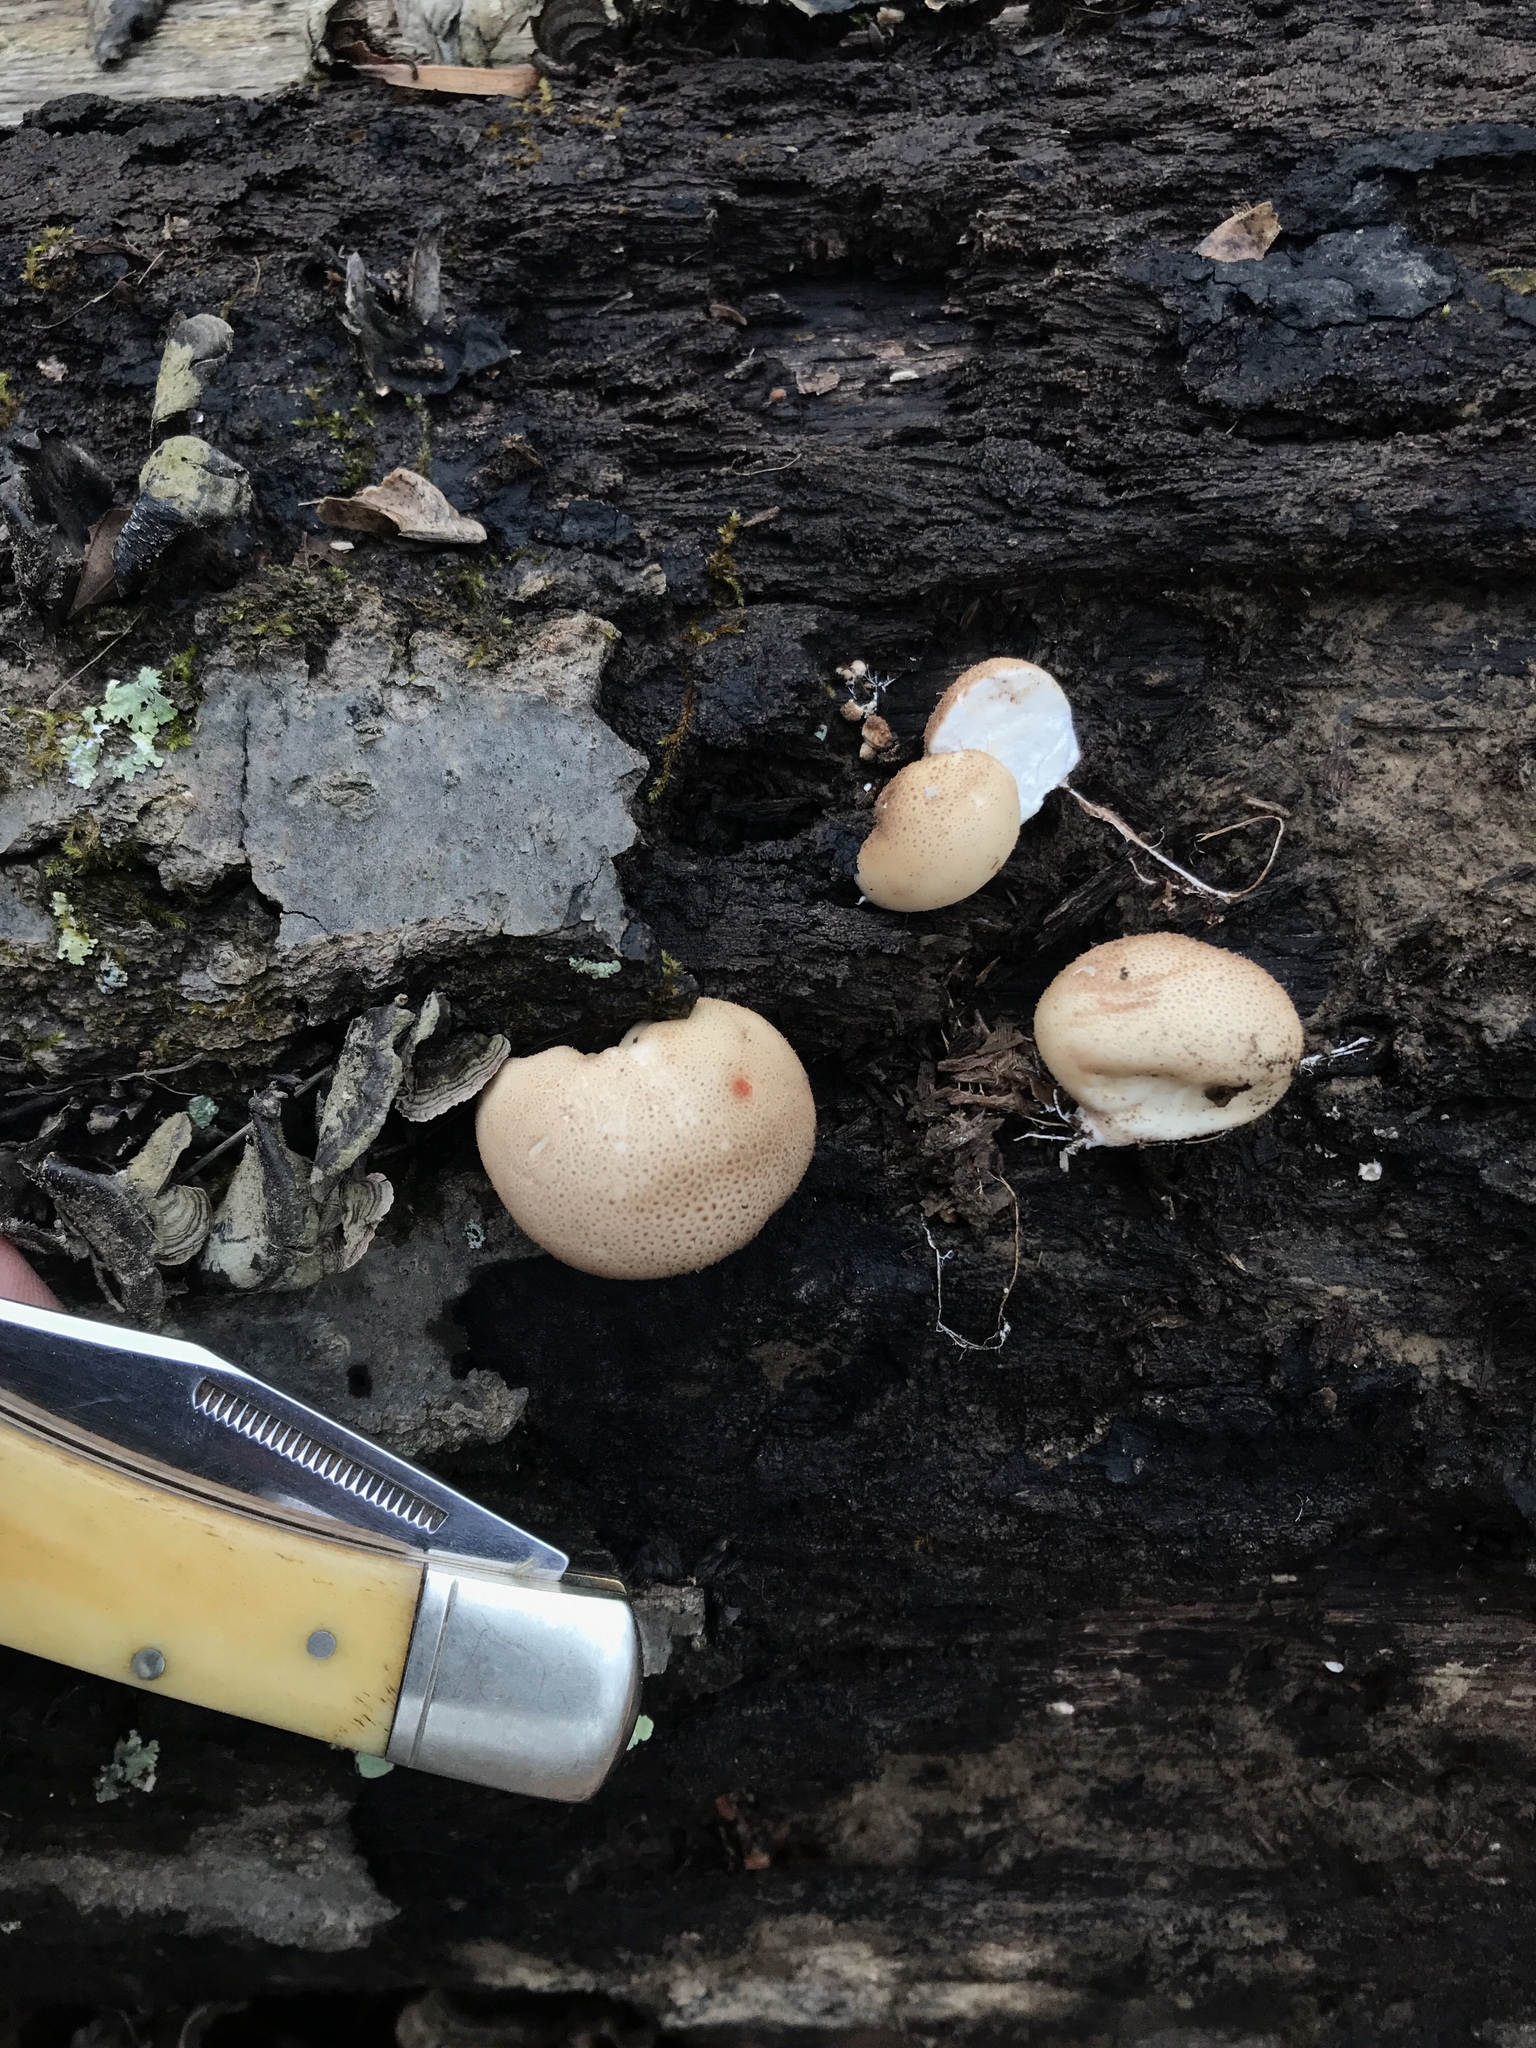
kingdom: Fungi
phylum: Basidiomycota
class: Agaricomycetes
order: Agaricales
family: Lycoperdaceae
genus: Apioperdon
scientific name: Apioperdon pyriforme
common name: Pear-shaped puffball
